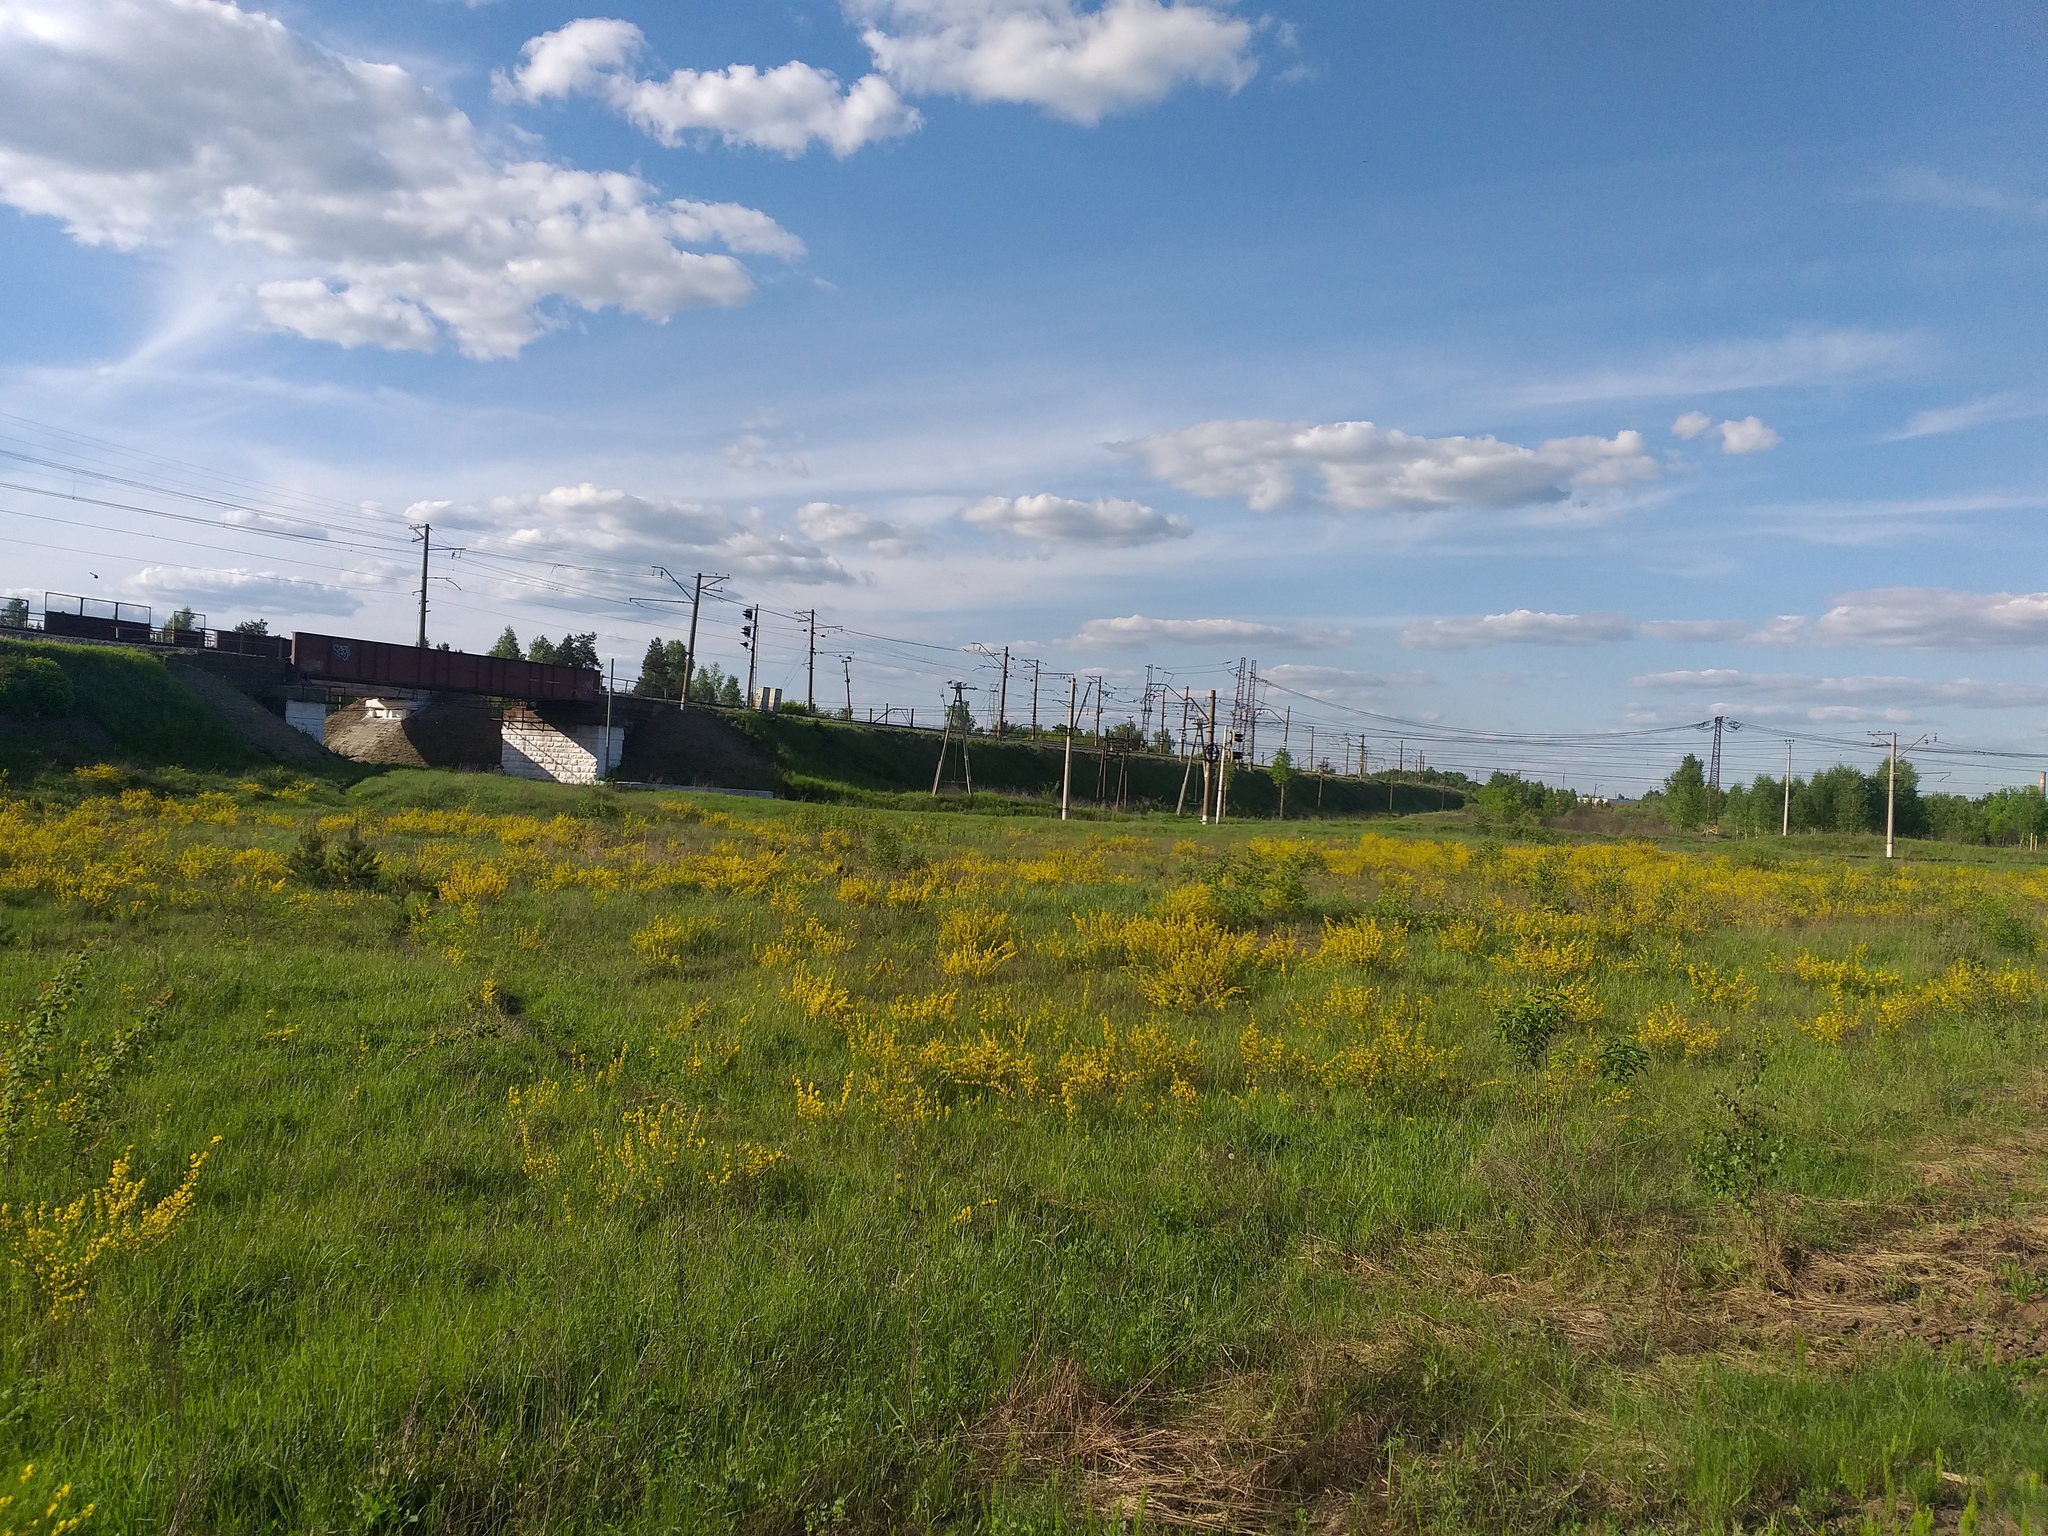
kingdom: Plantae
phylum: Tracheophyta
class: Magnoliopsida
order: Fabales
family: Fabaceae
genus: Chamaecytisus
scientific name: Chamaecytisus ruthenicus
